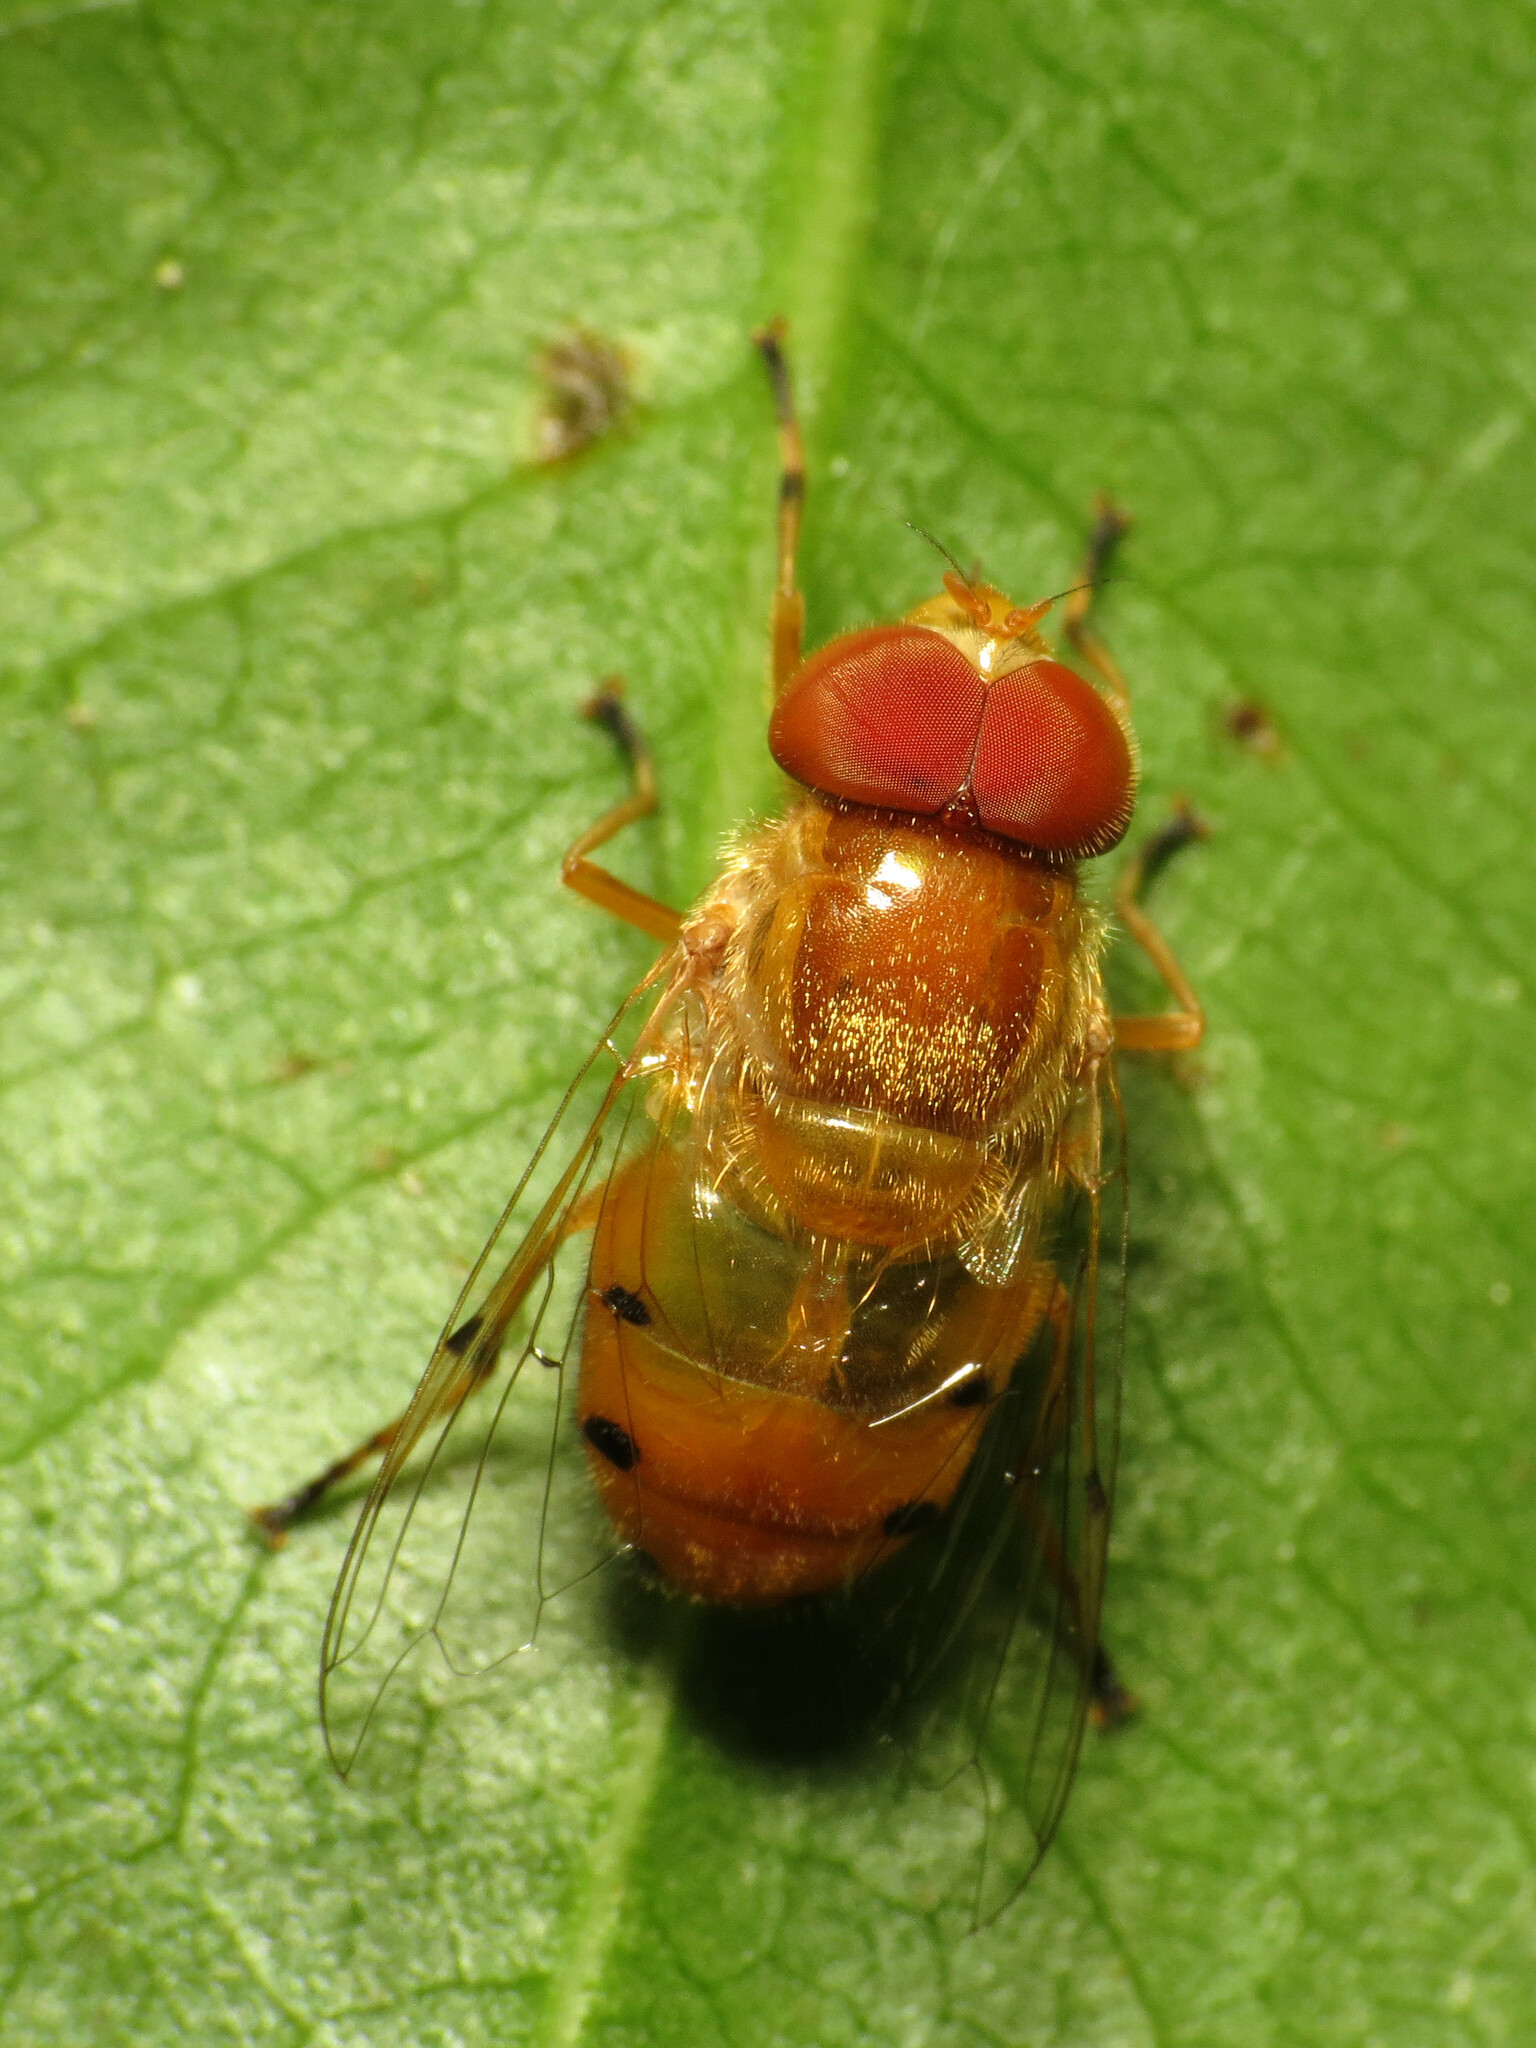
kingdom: Animalia
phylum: Arthropoda
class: Insecta
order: Diptera
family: Syrphidae
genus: Copestylum
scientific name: Copestylum sexmaculatum
